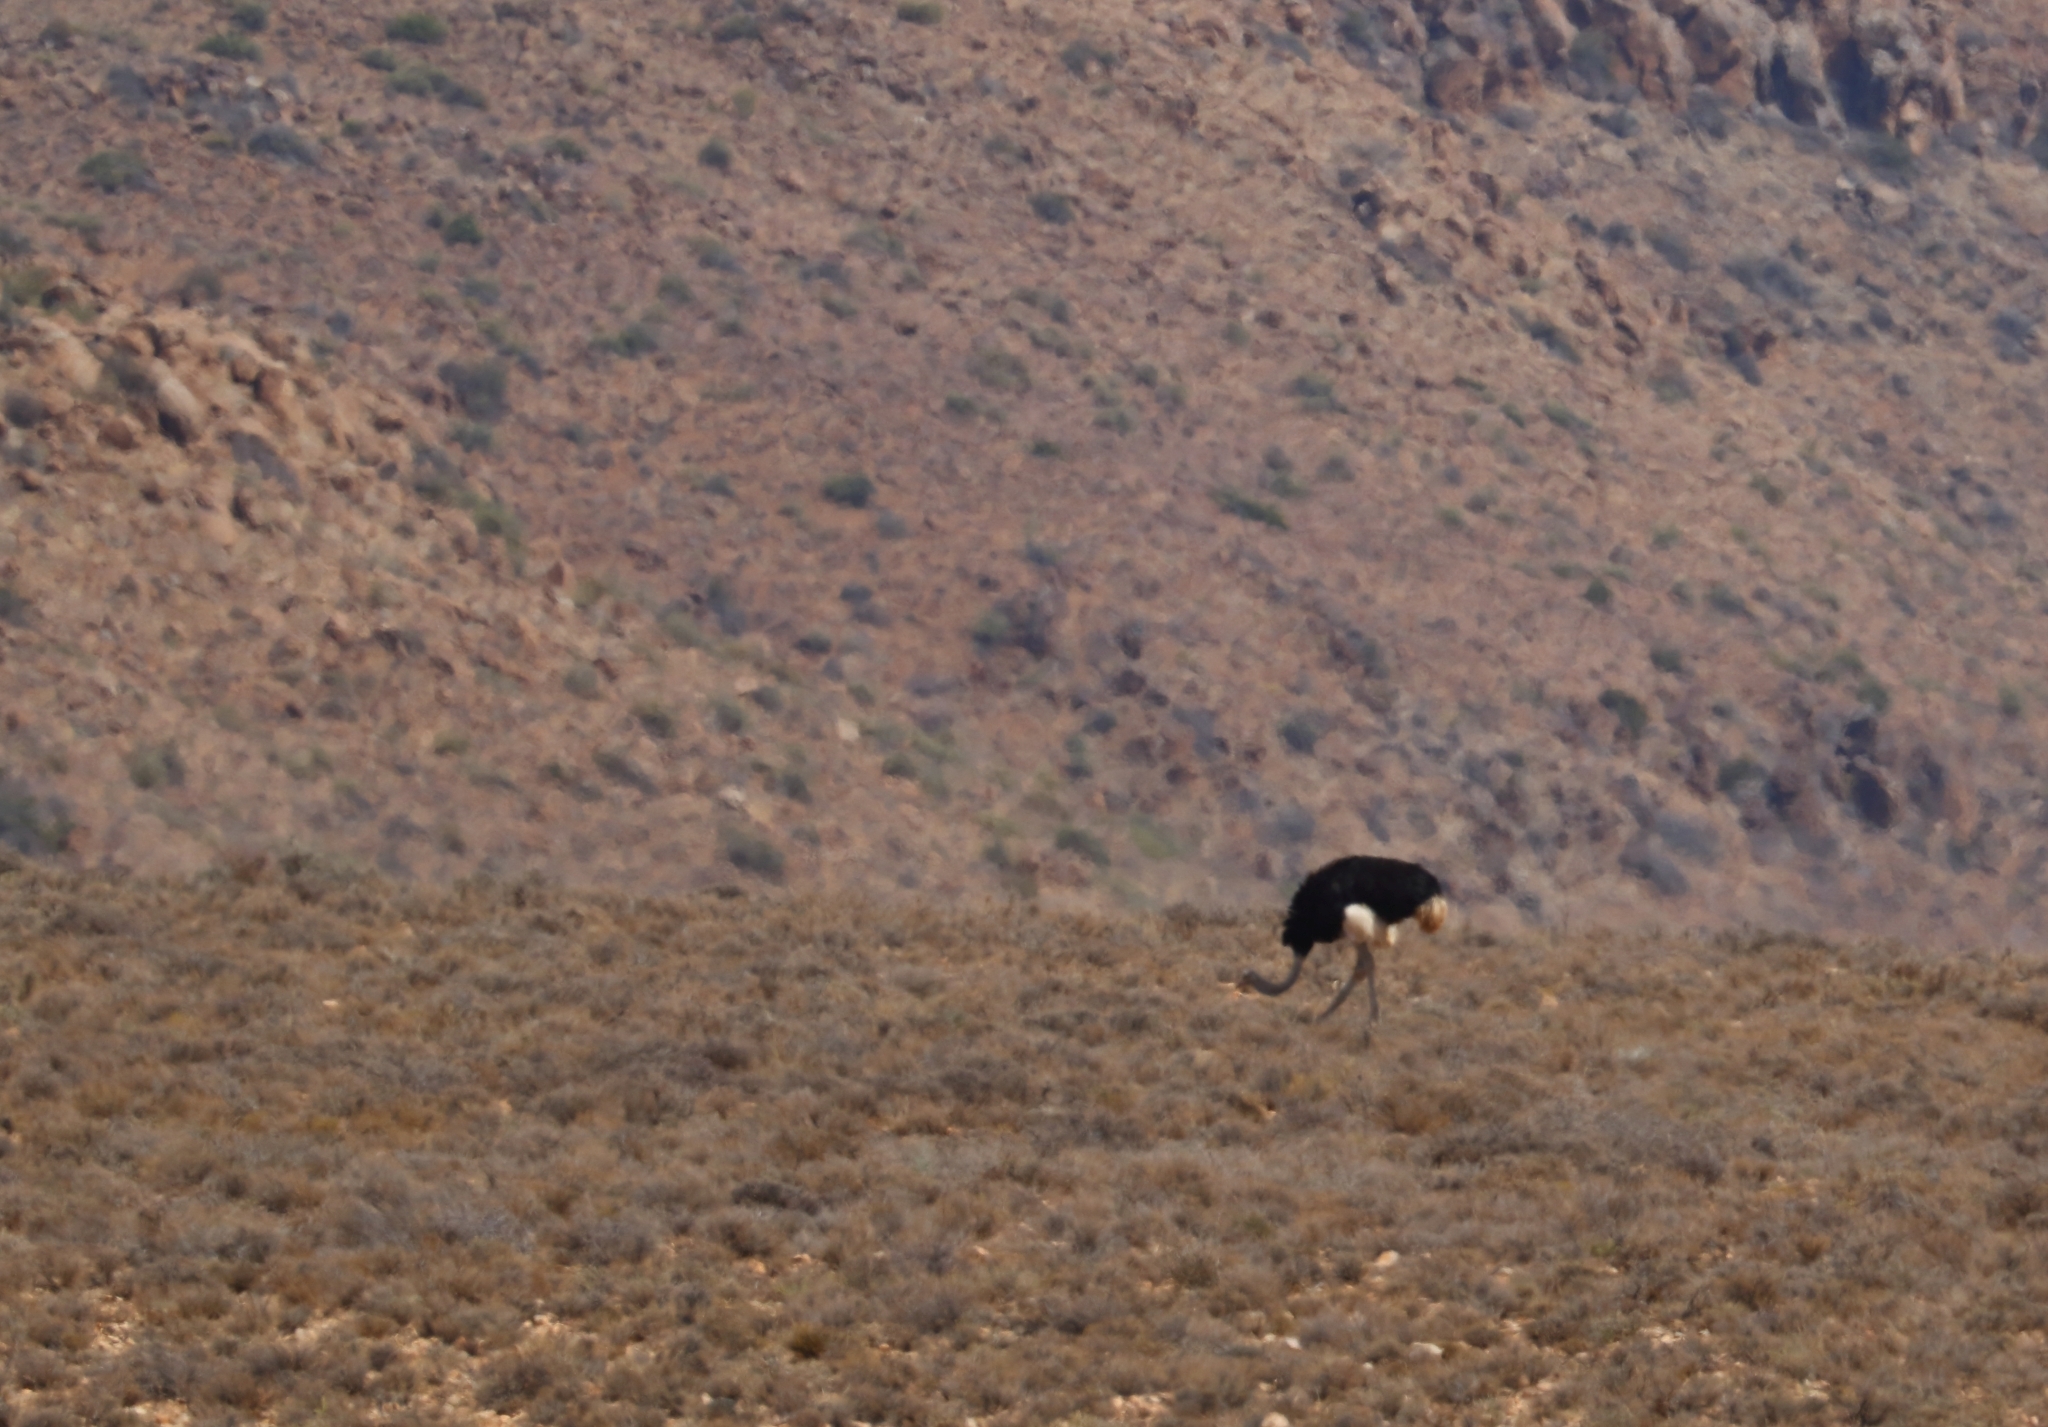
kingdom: Animalia
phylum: Chordata
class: Aves
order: Struthioniformes
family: Struthionidae
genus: Struthio
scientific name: Struthio camelus
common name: Common ostrich
